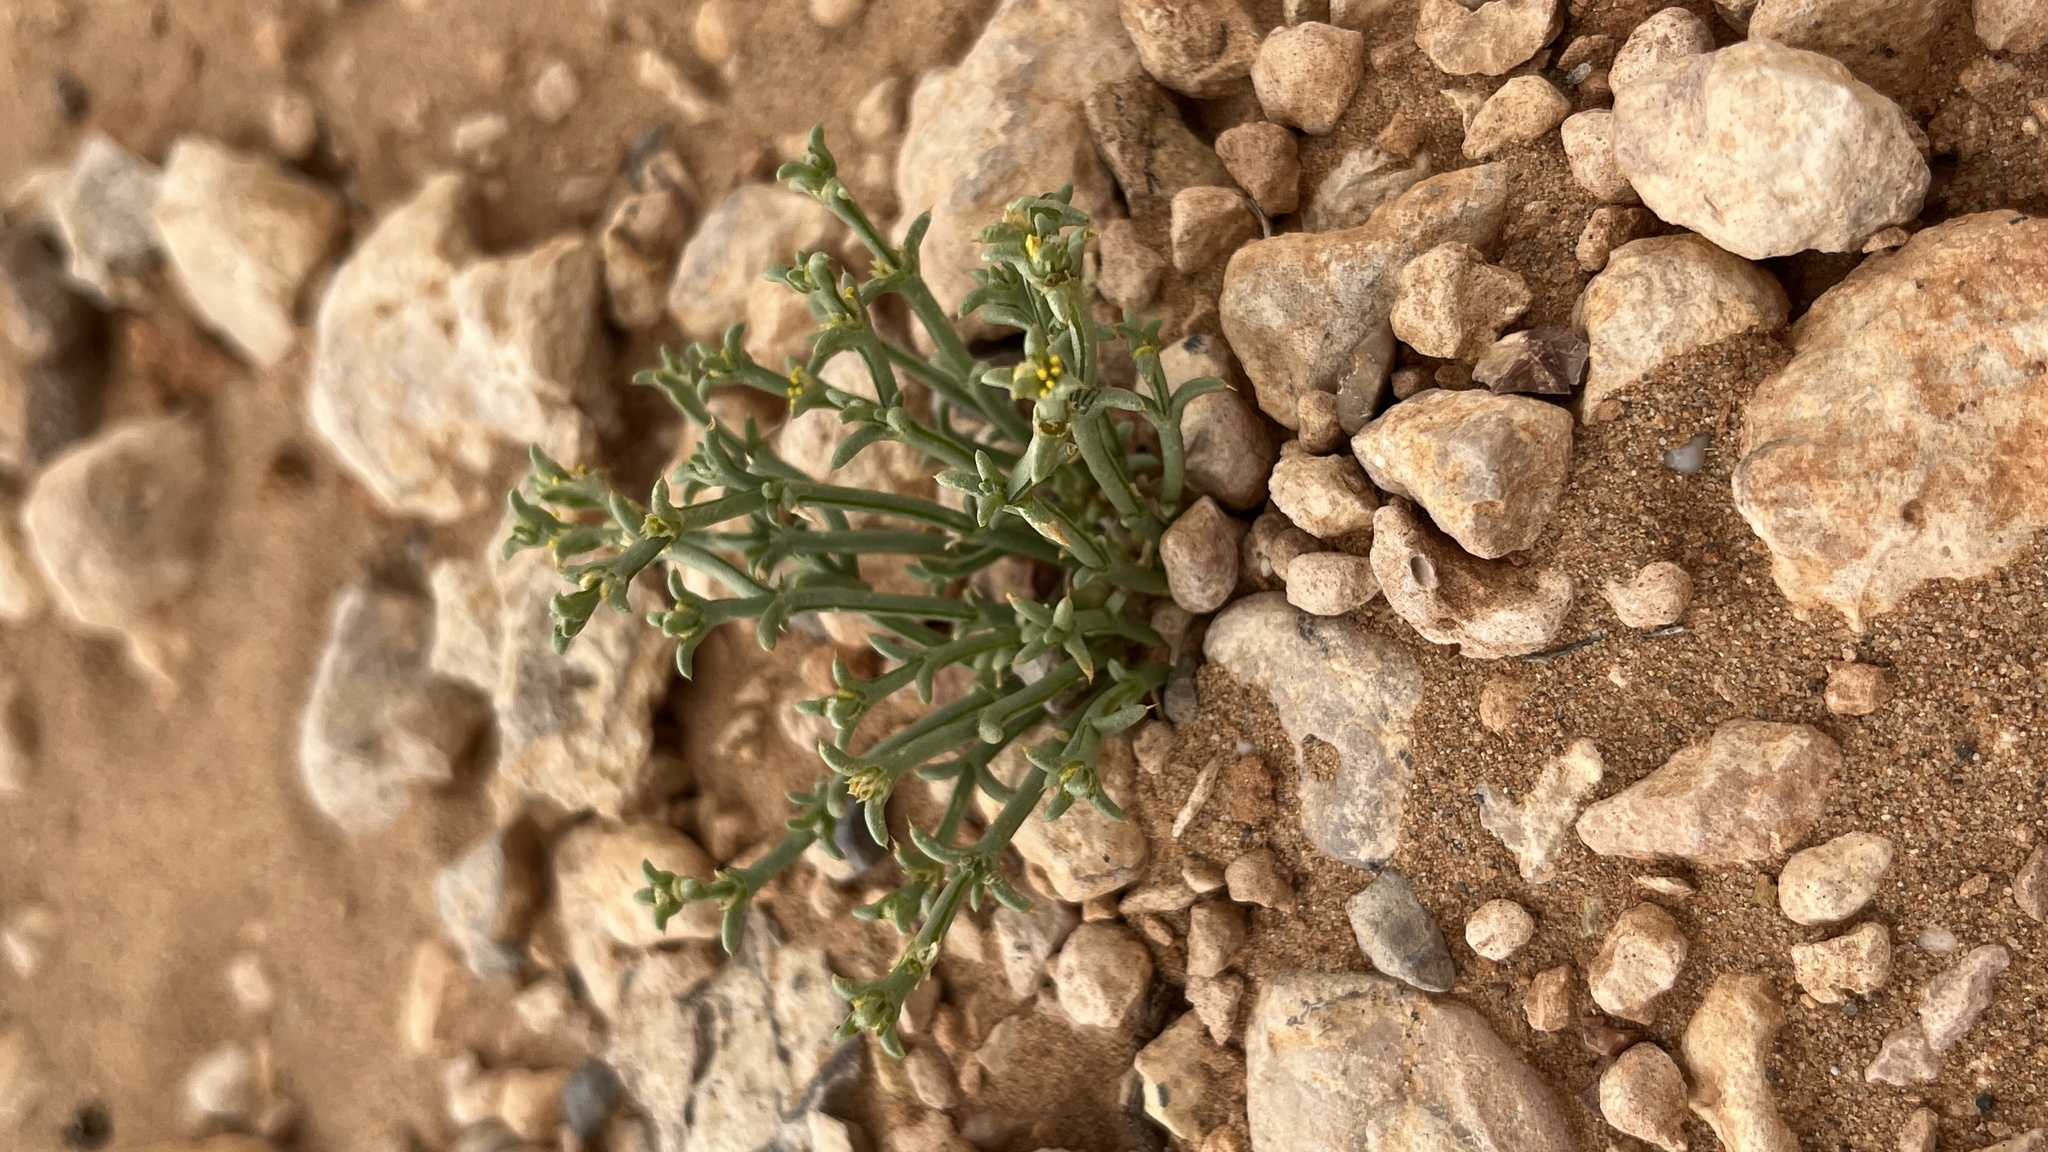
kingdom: Plantae
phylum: Tracheophyta
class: Magnoliopsida
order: Caryophyllales
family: Amaranthaceae
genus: Anabasis
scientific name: Anabasis brevifolia
